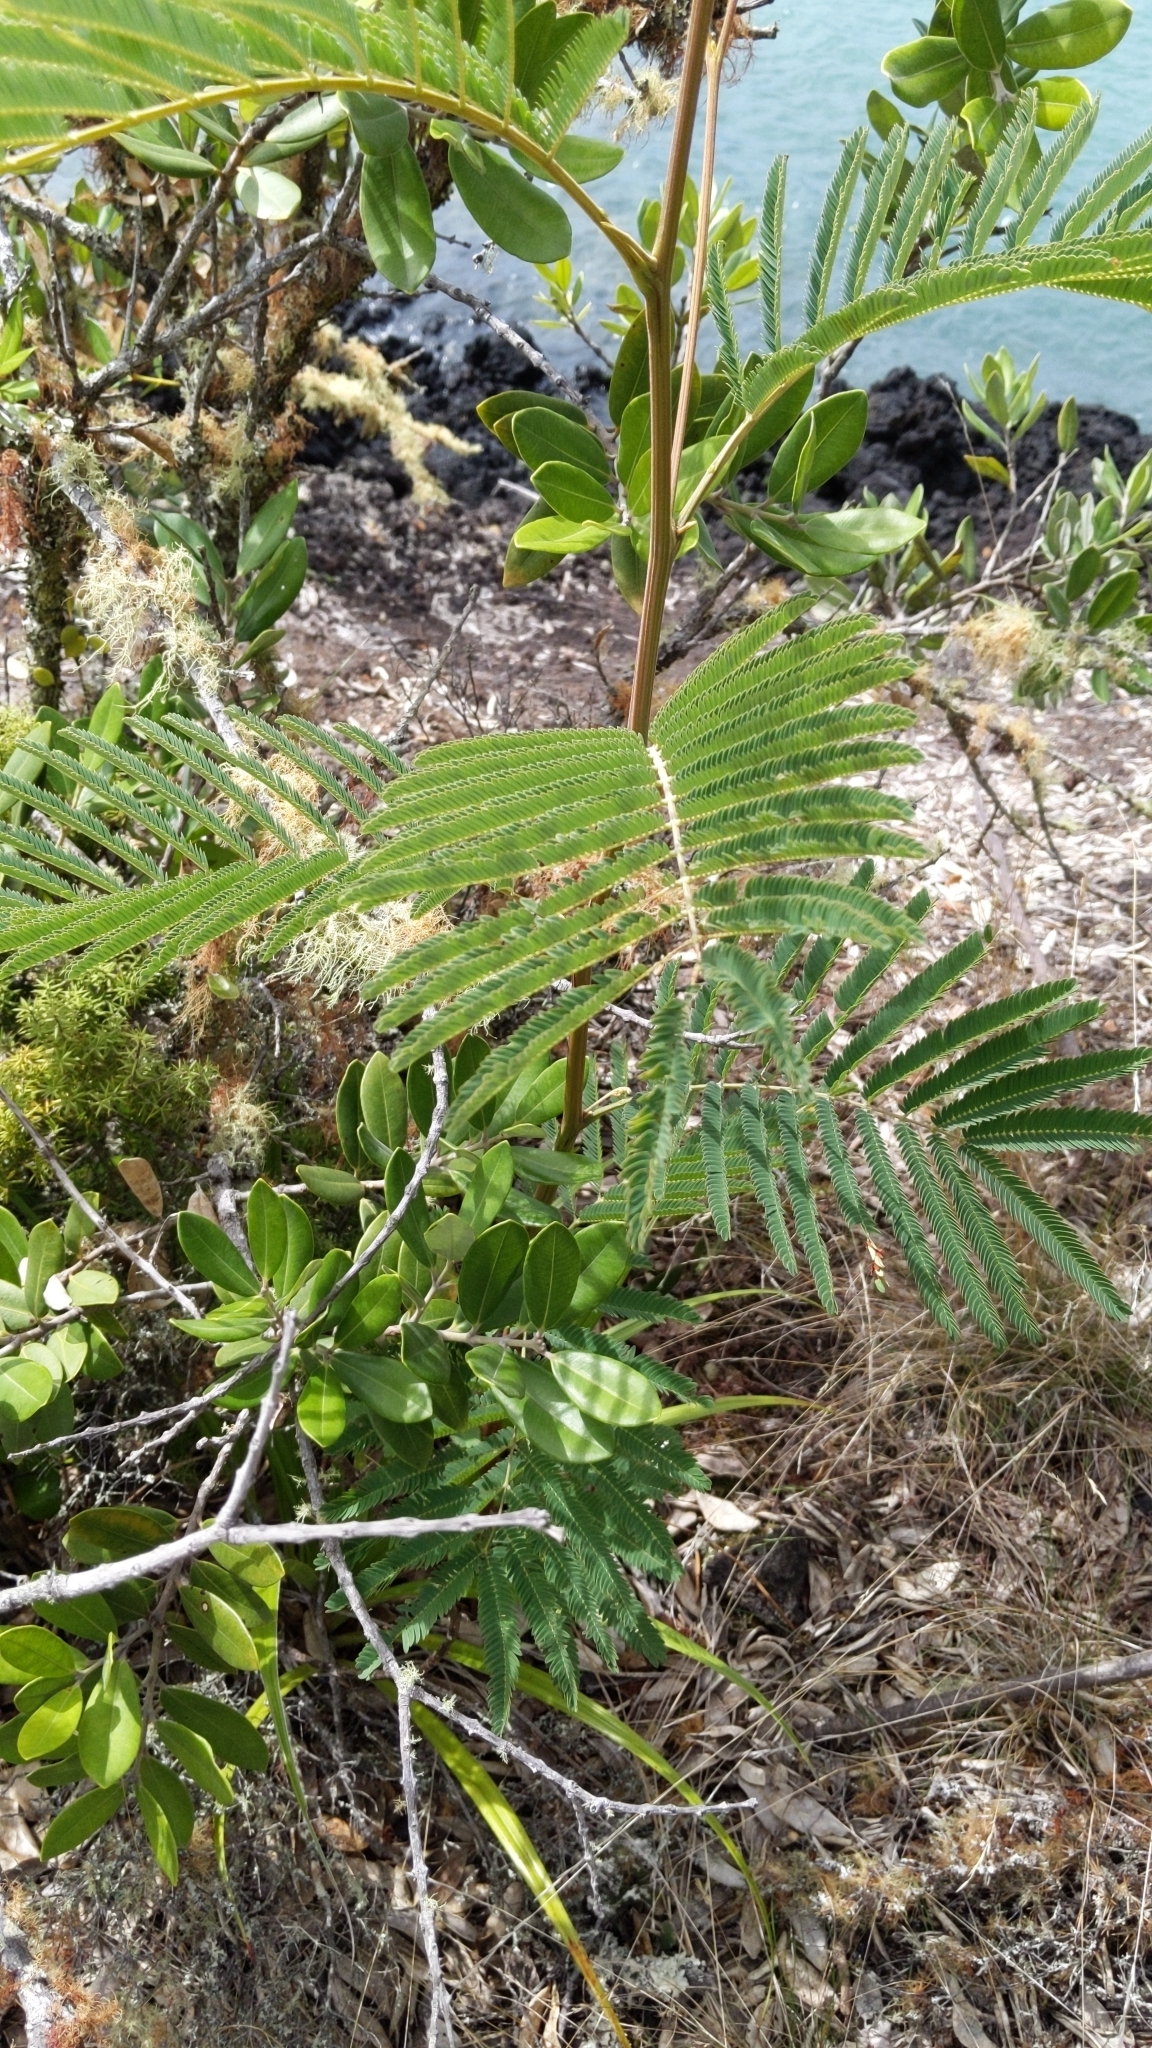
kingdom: Plantae
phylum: Tracheophyta
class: Magnoliopsida
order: Fabales
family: Fabaceae
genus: Paraserianthes
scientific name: Paraserianthes lophantha
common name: Plume albizia
